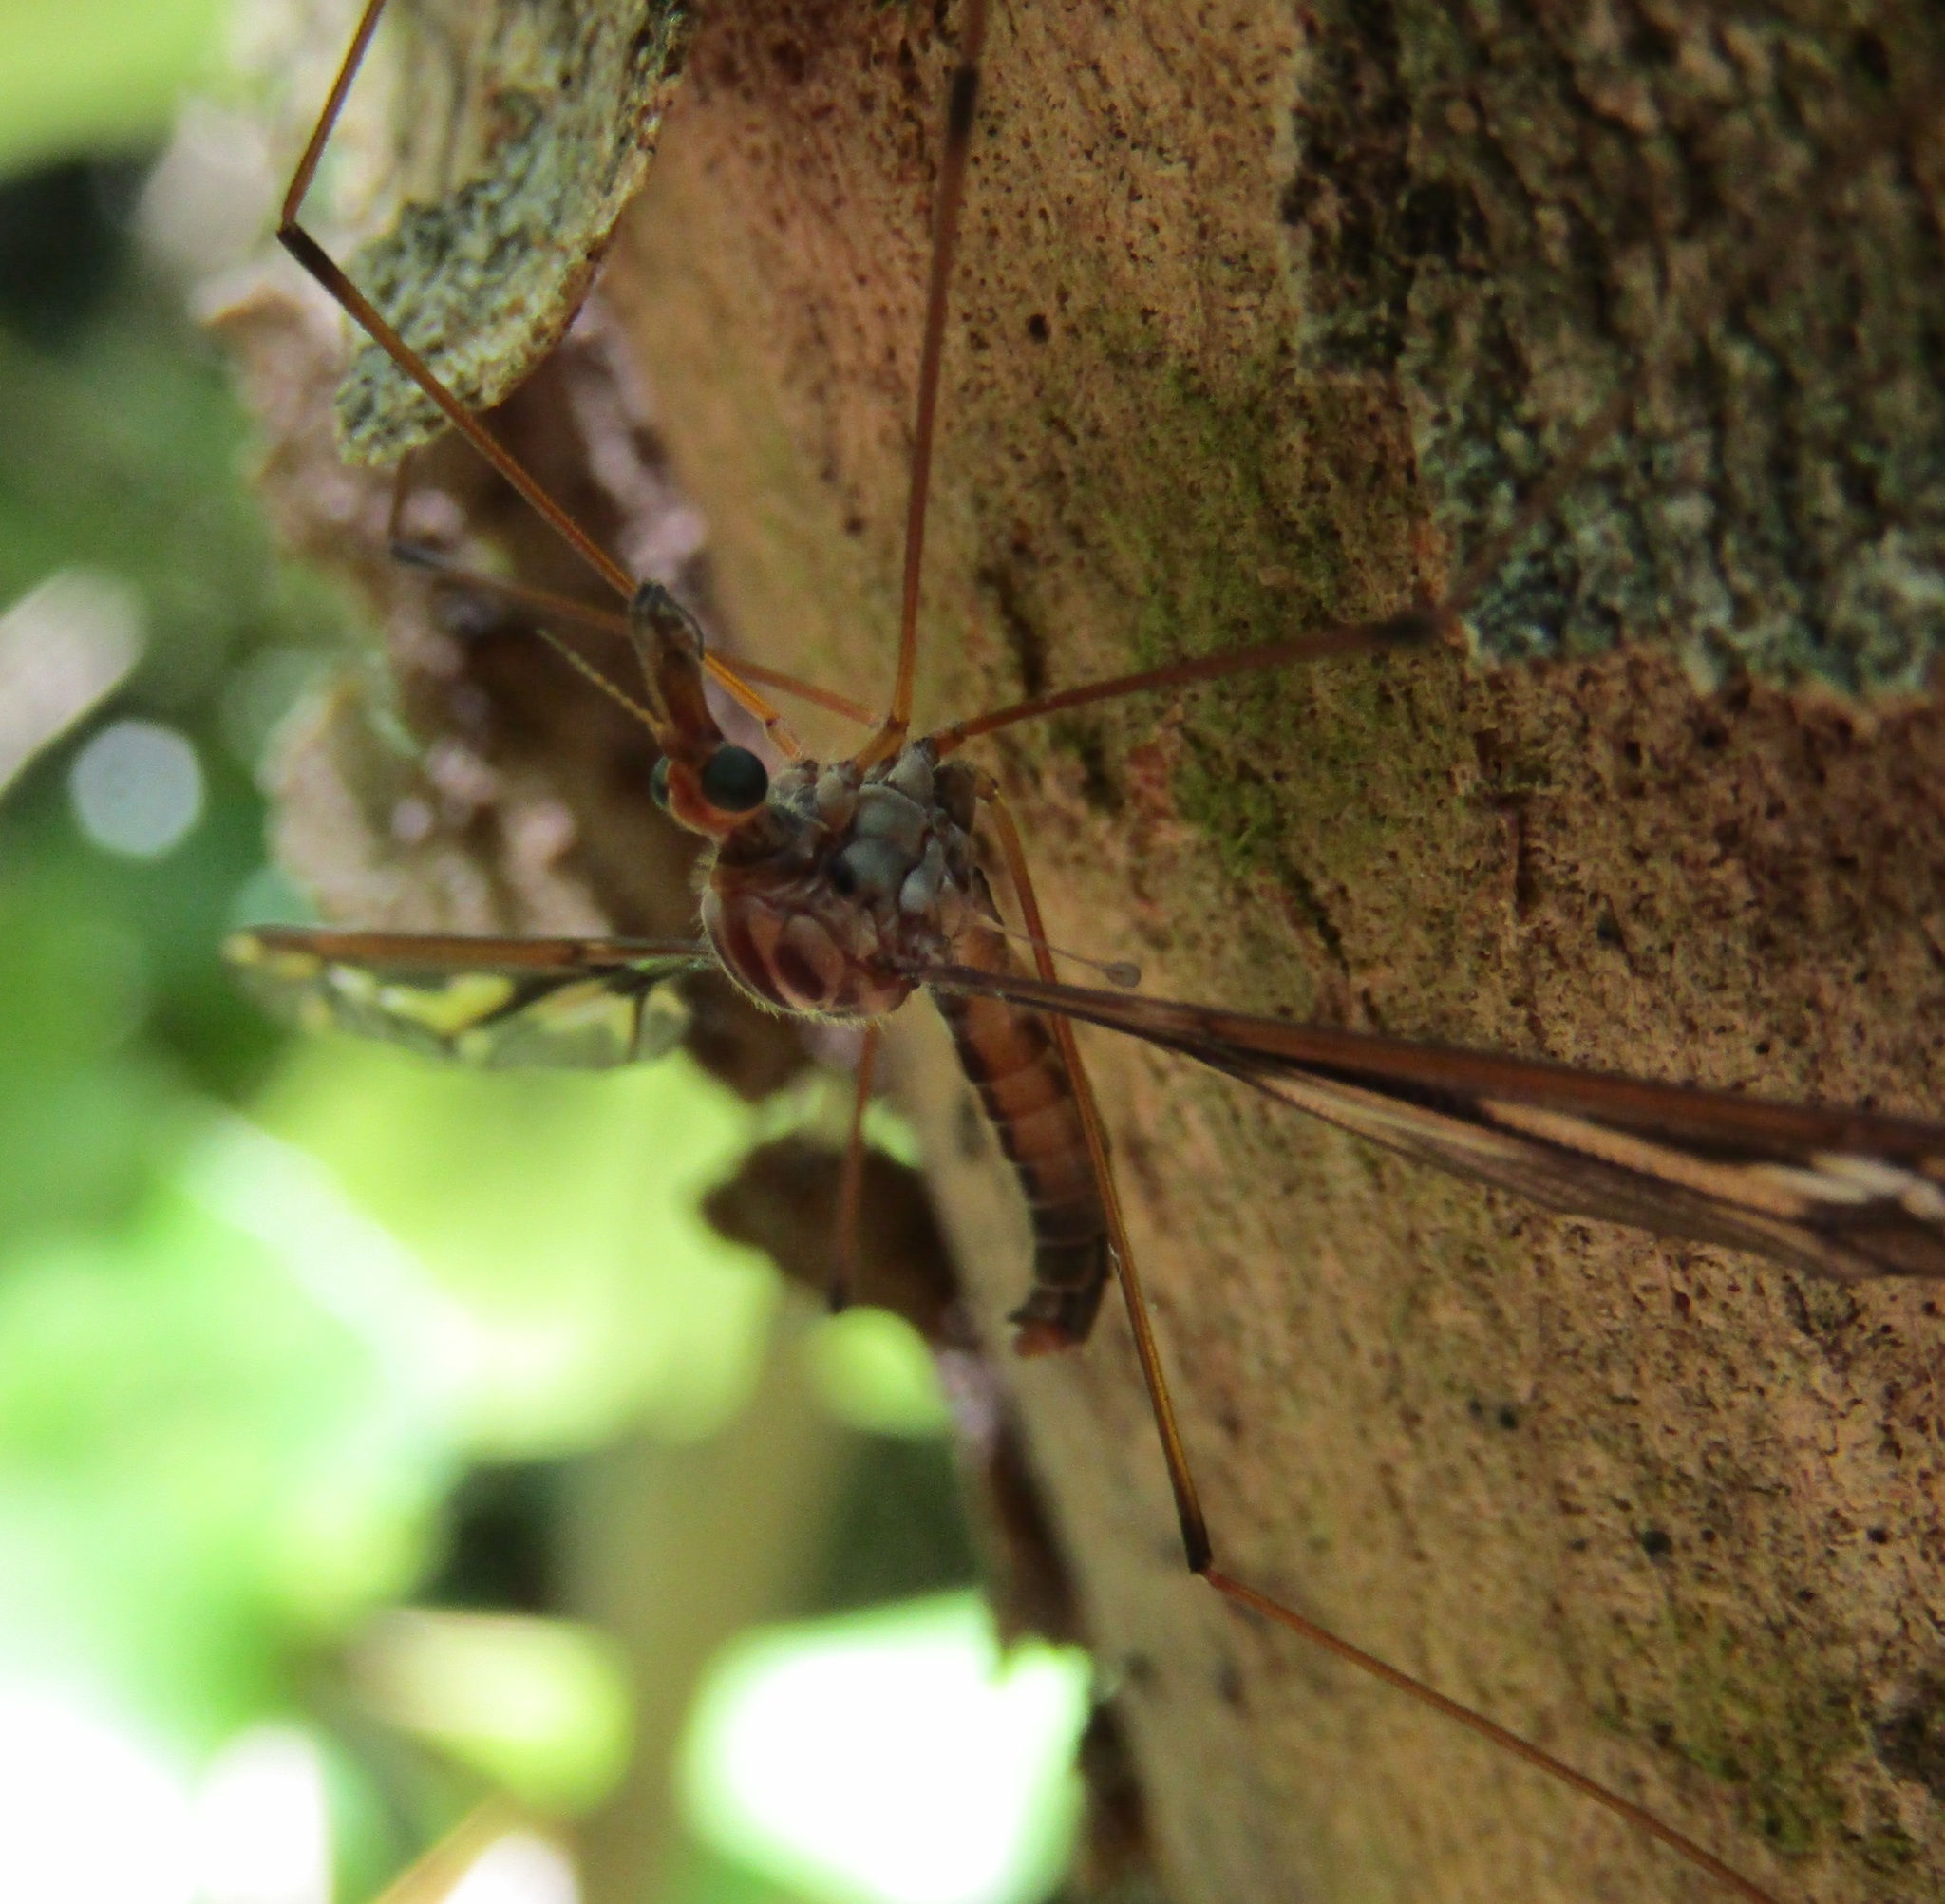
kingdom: Animalia
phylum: Arthropoda
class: Insecta
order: Diptera
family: Tipulidae
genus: Leptotarsus
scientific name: Leptotarsus huttoni
